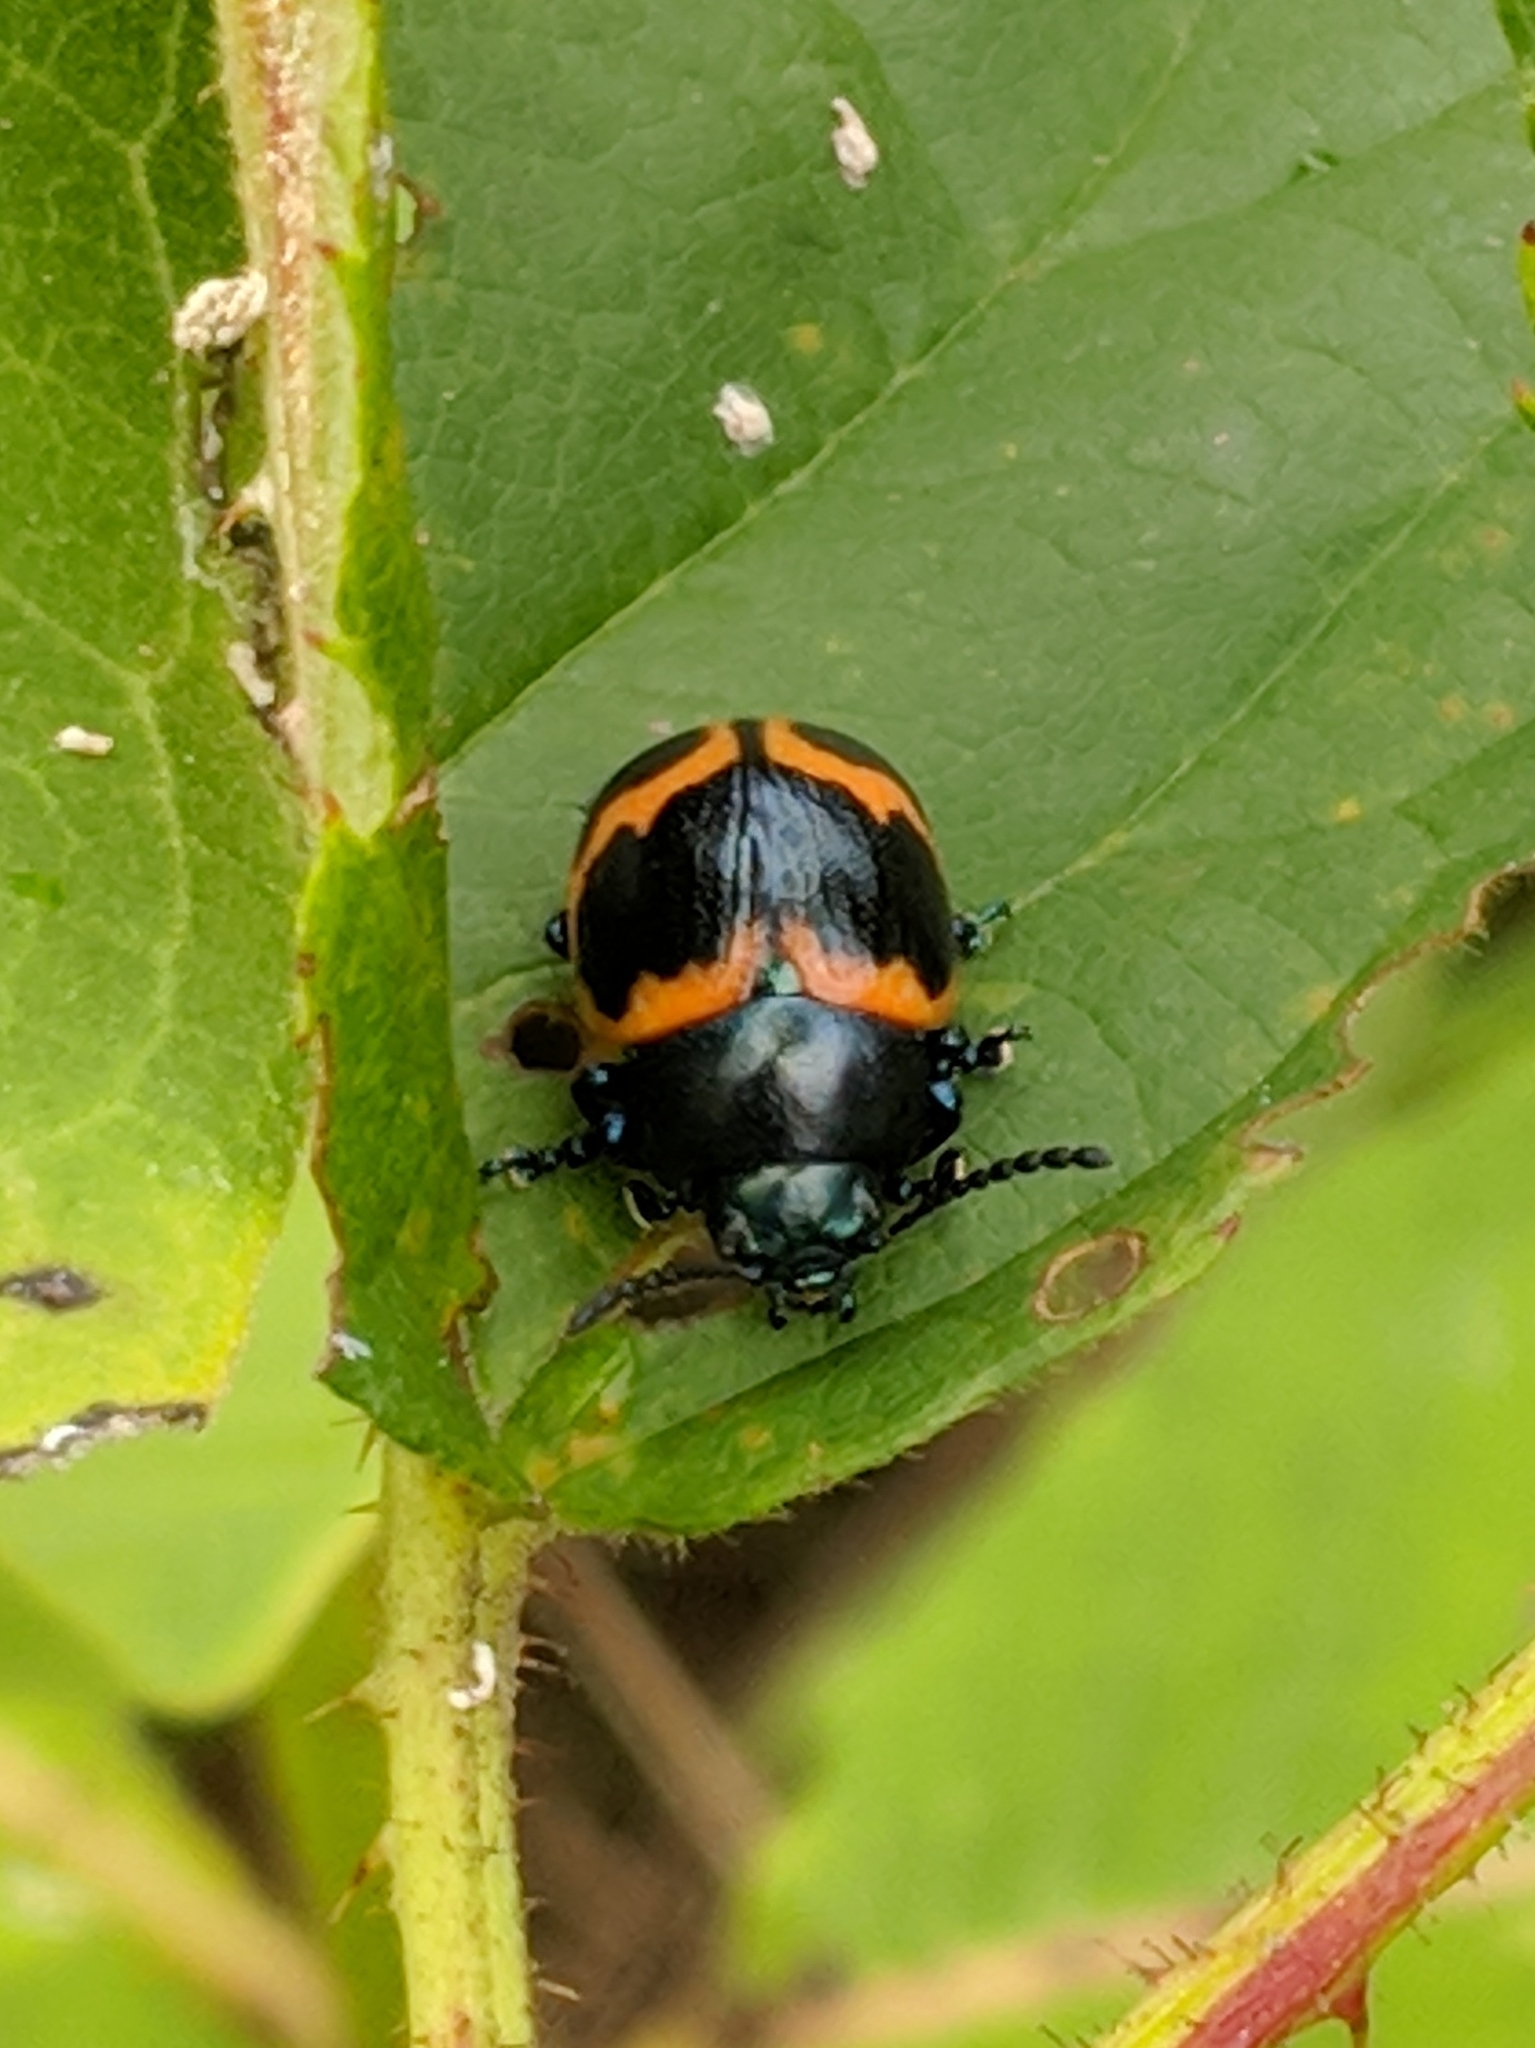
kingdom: Animalia
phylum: Arthropoda
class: Insecta
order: Coleoptera
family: Chrysomelidae
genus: Labidomera
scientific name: Labidomera clivicollis
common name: Swamp milkweed leaf beetle
